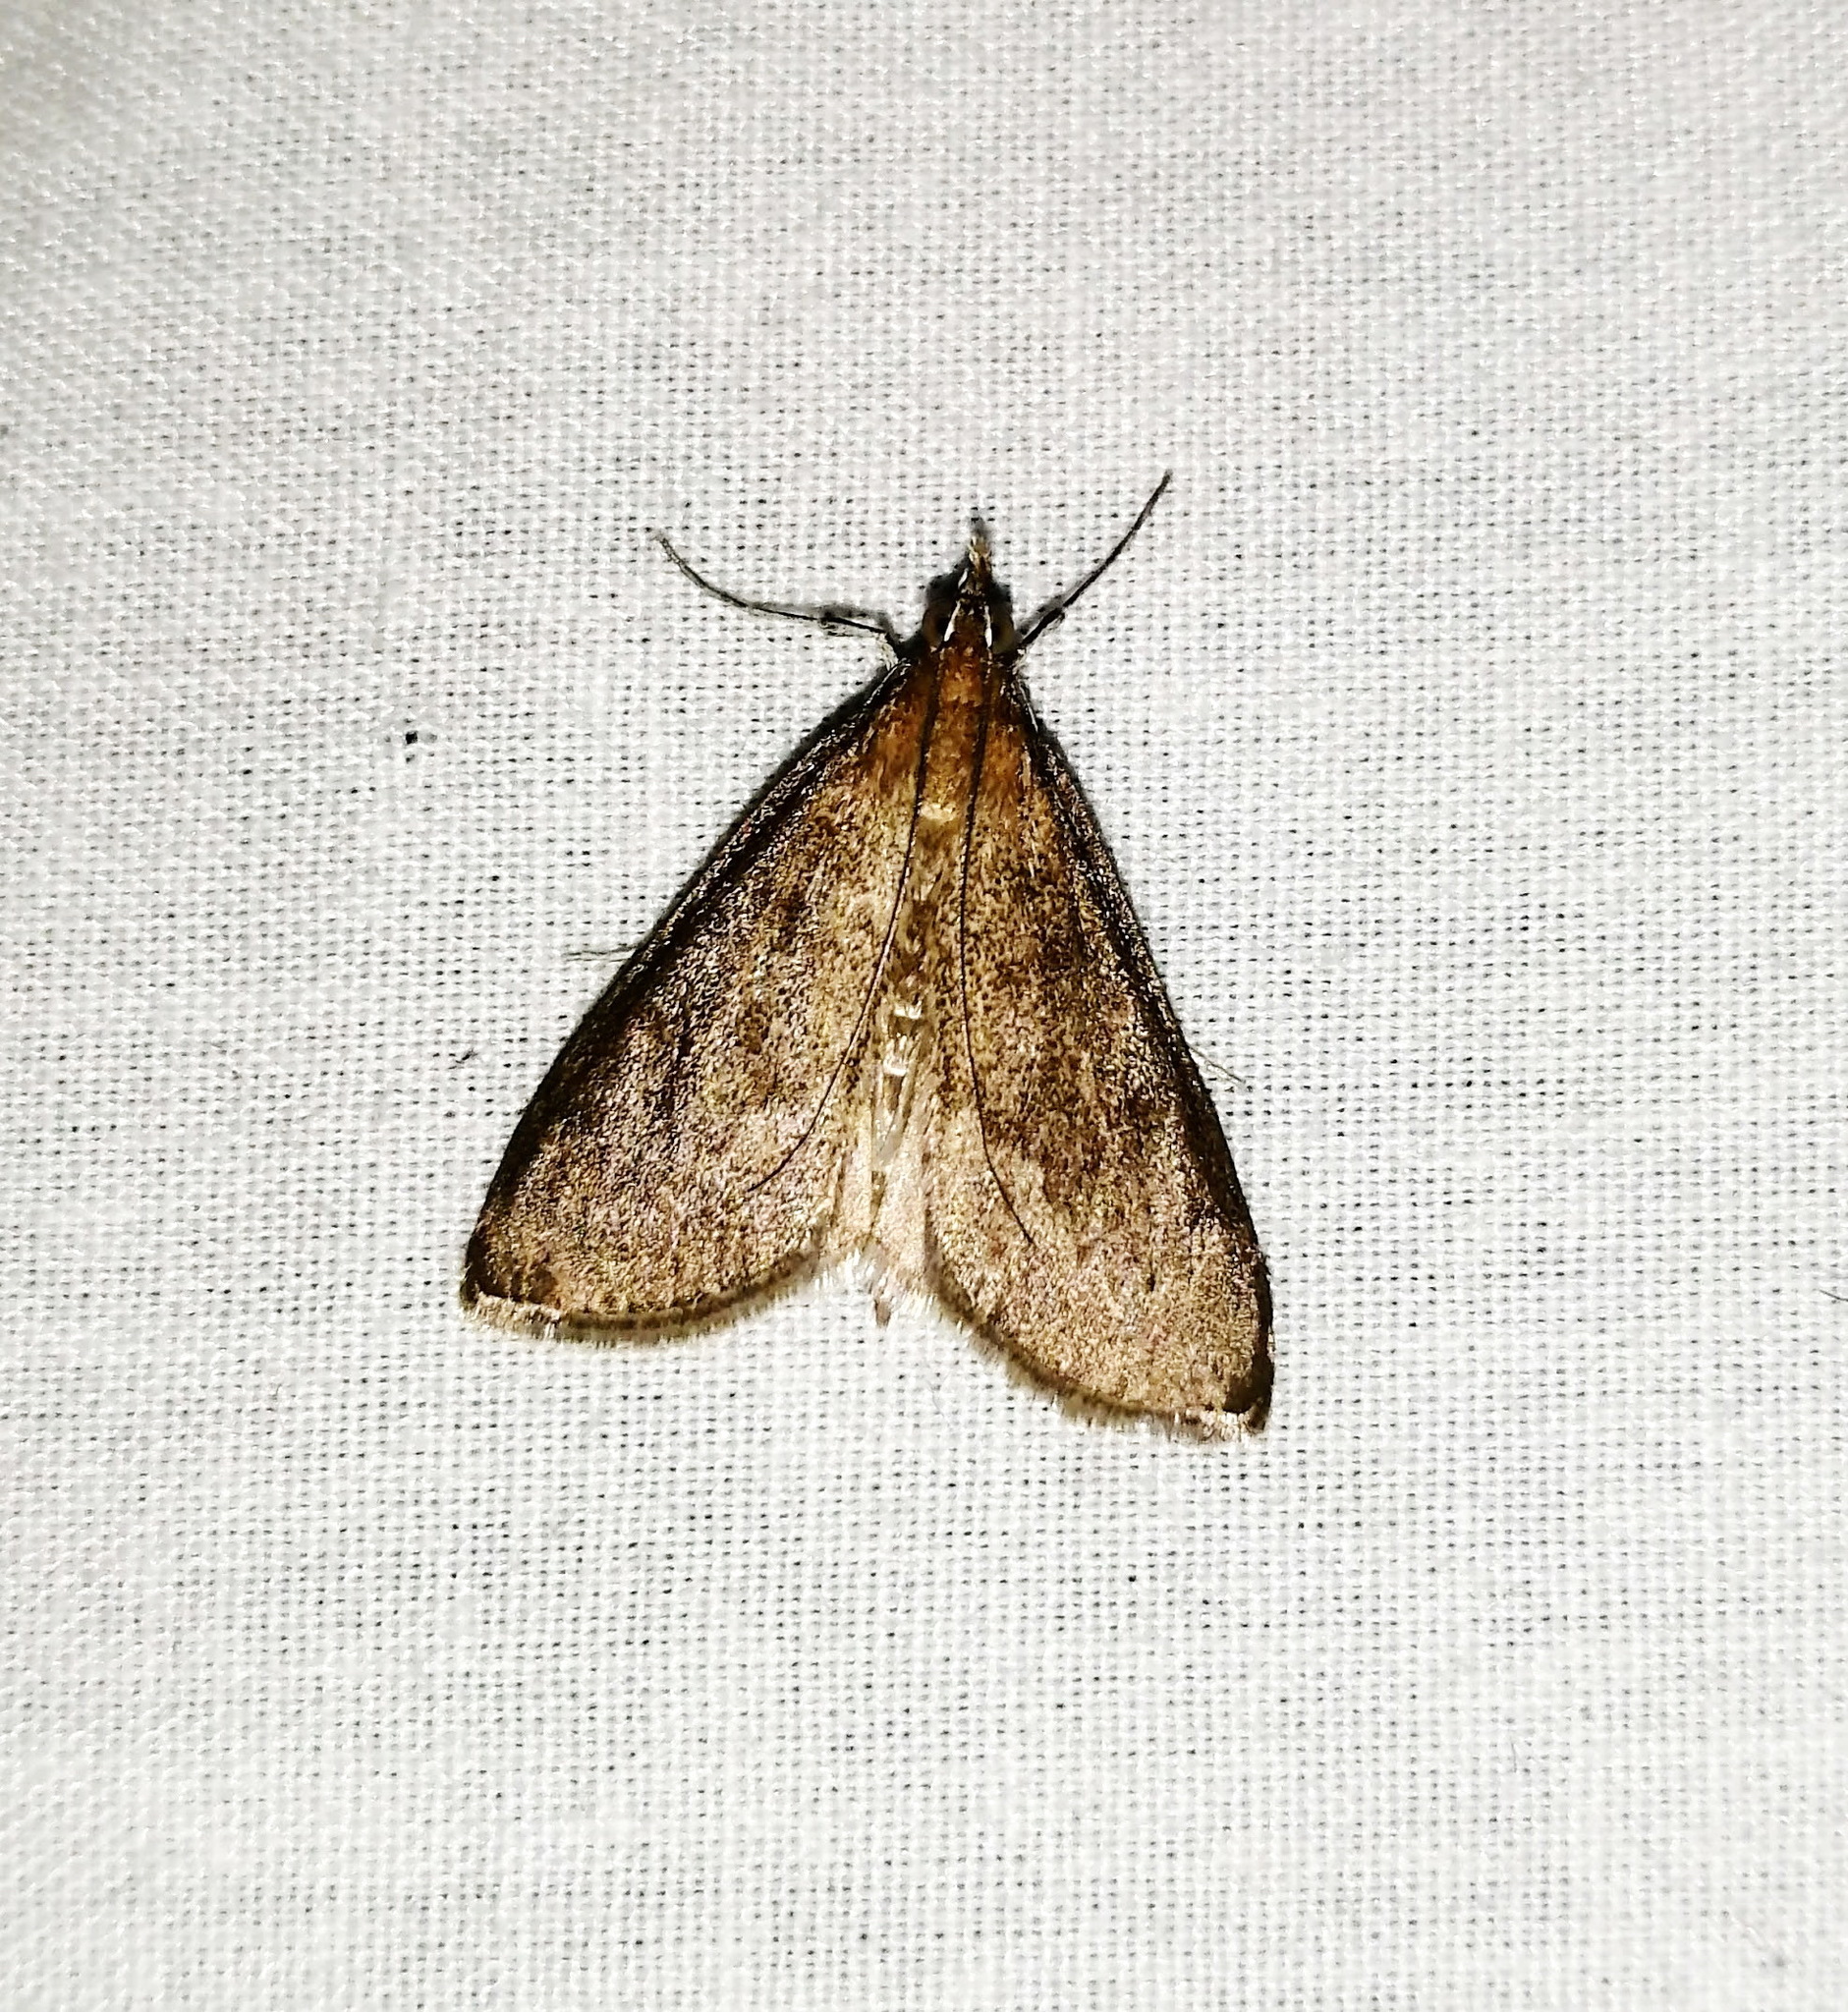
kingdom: Animalia
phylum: Arthropoda
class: Insecta
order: Lepidoptera
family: Crambidae
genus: Saucrobotys
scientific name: Saucrobotys futilalis
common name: Dogbane saucrobotys moth
